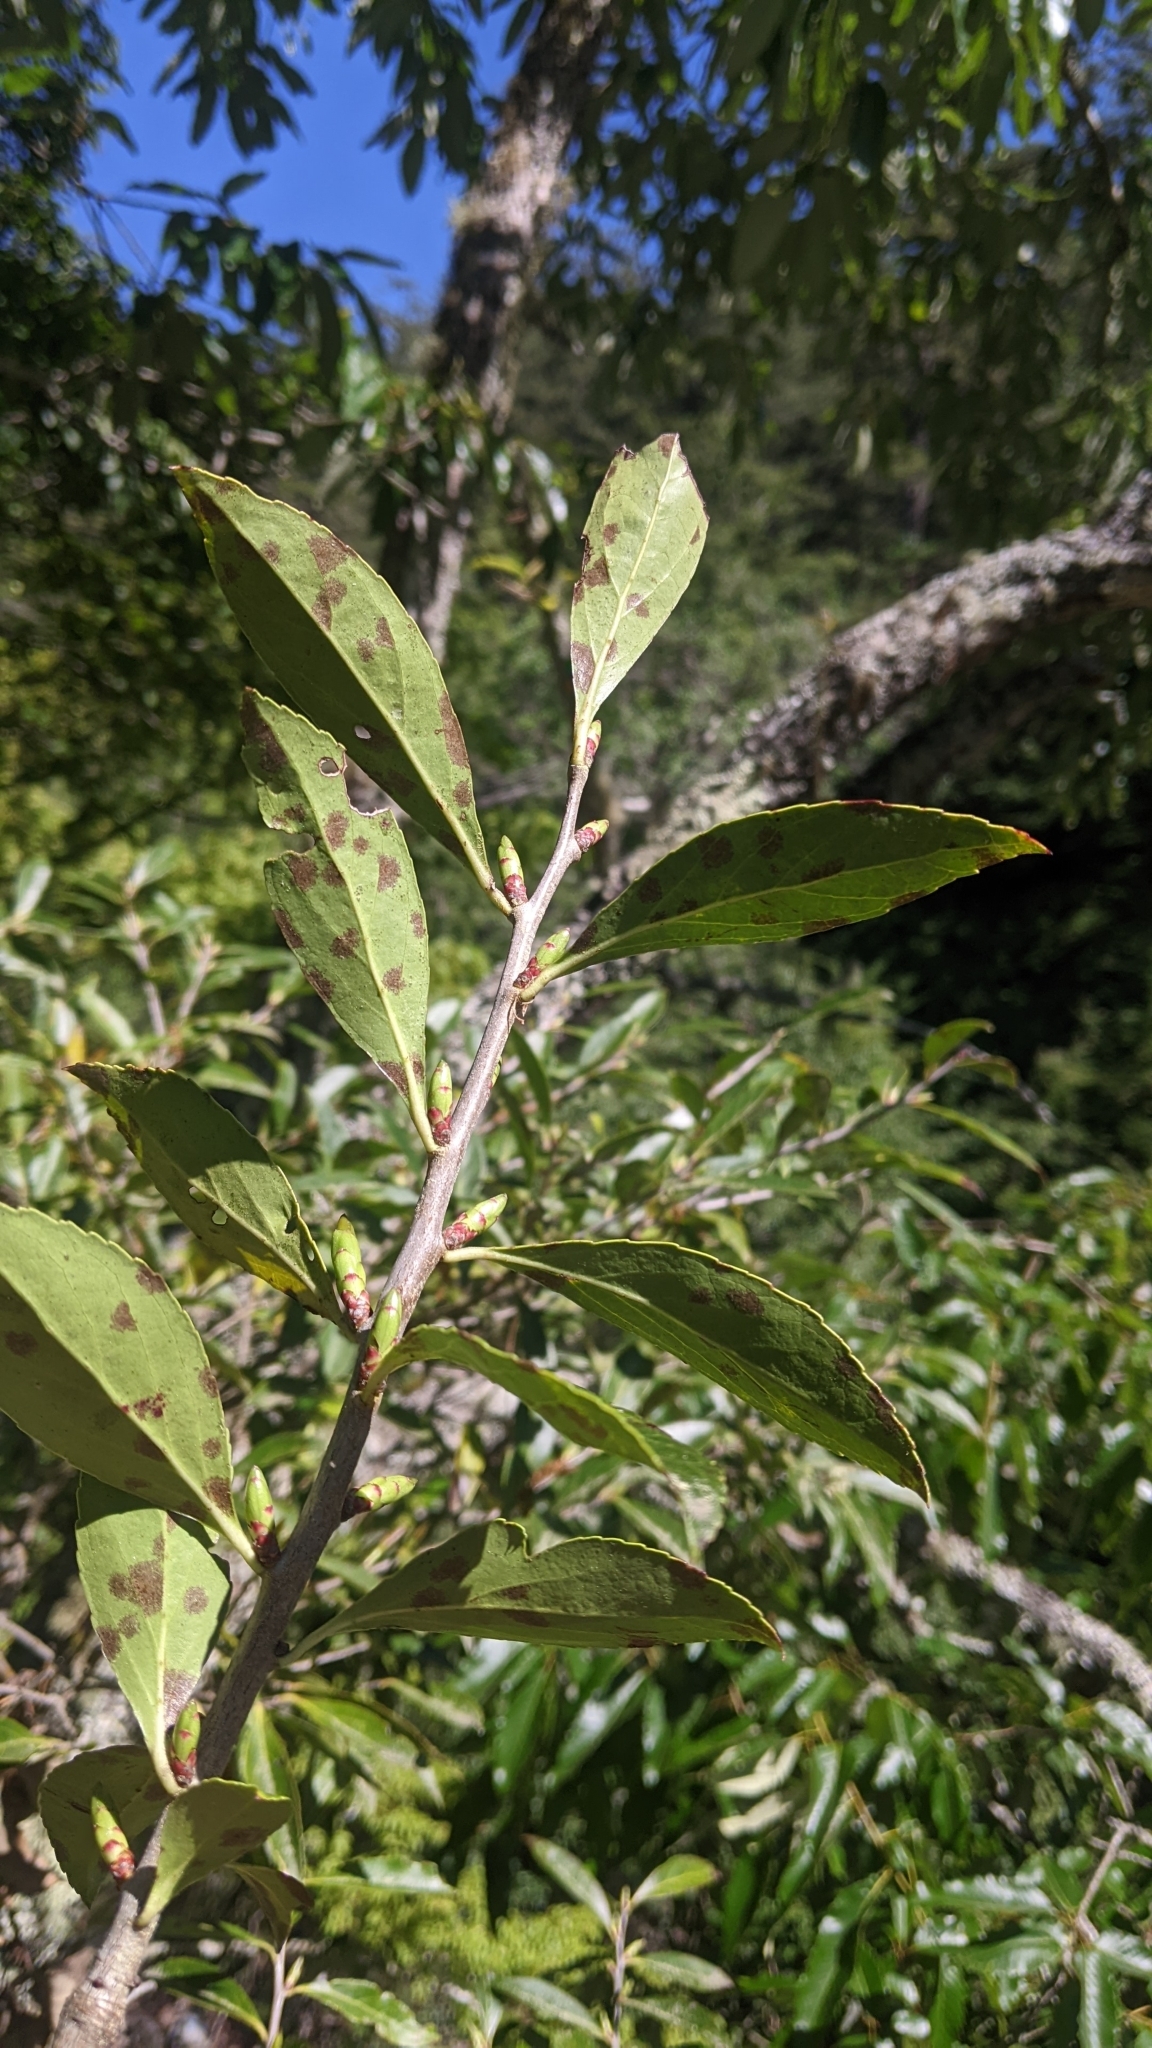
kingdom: Plantae
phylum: Tracheophyta
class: Magnoliopsida
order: Ericales
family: Ericaceae
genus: Vaccinium
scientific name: Vaccinium dunalianum
